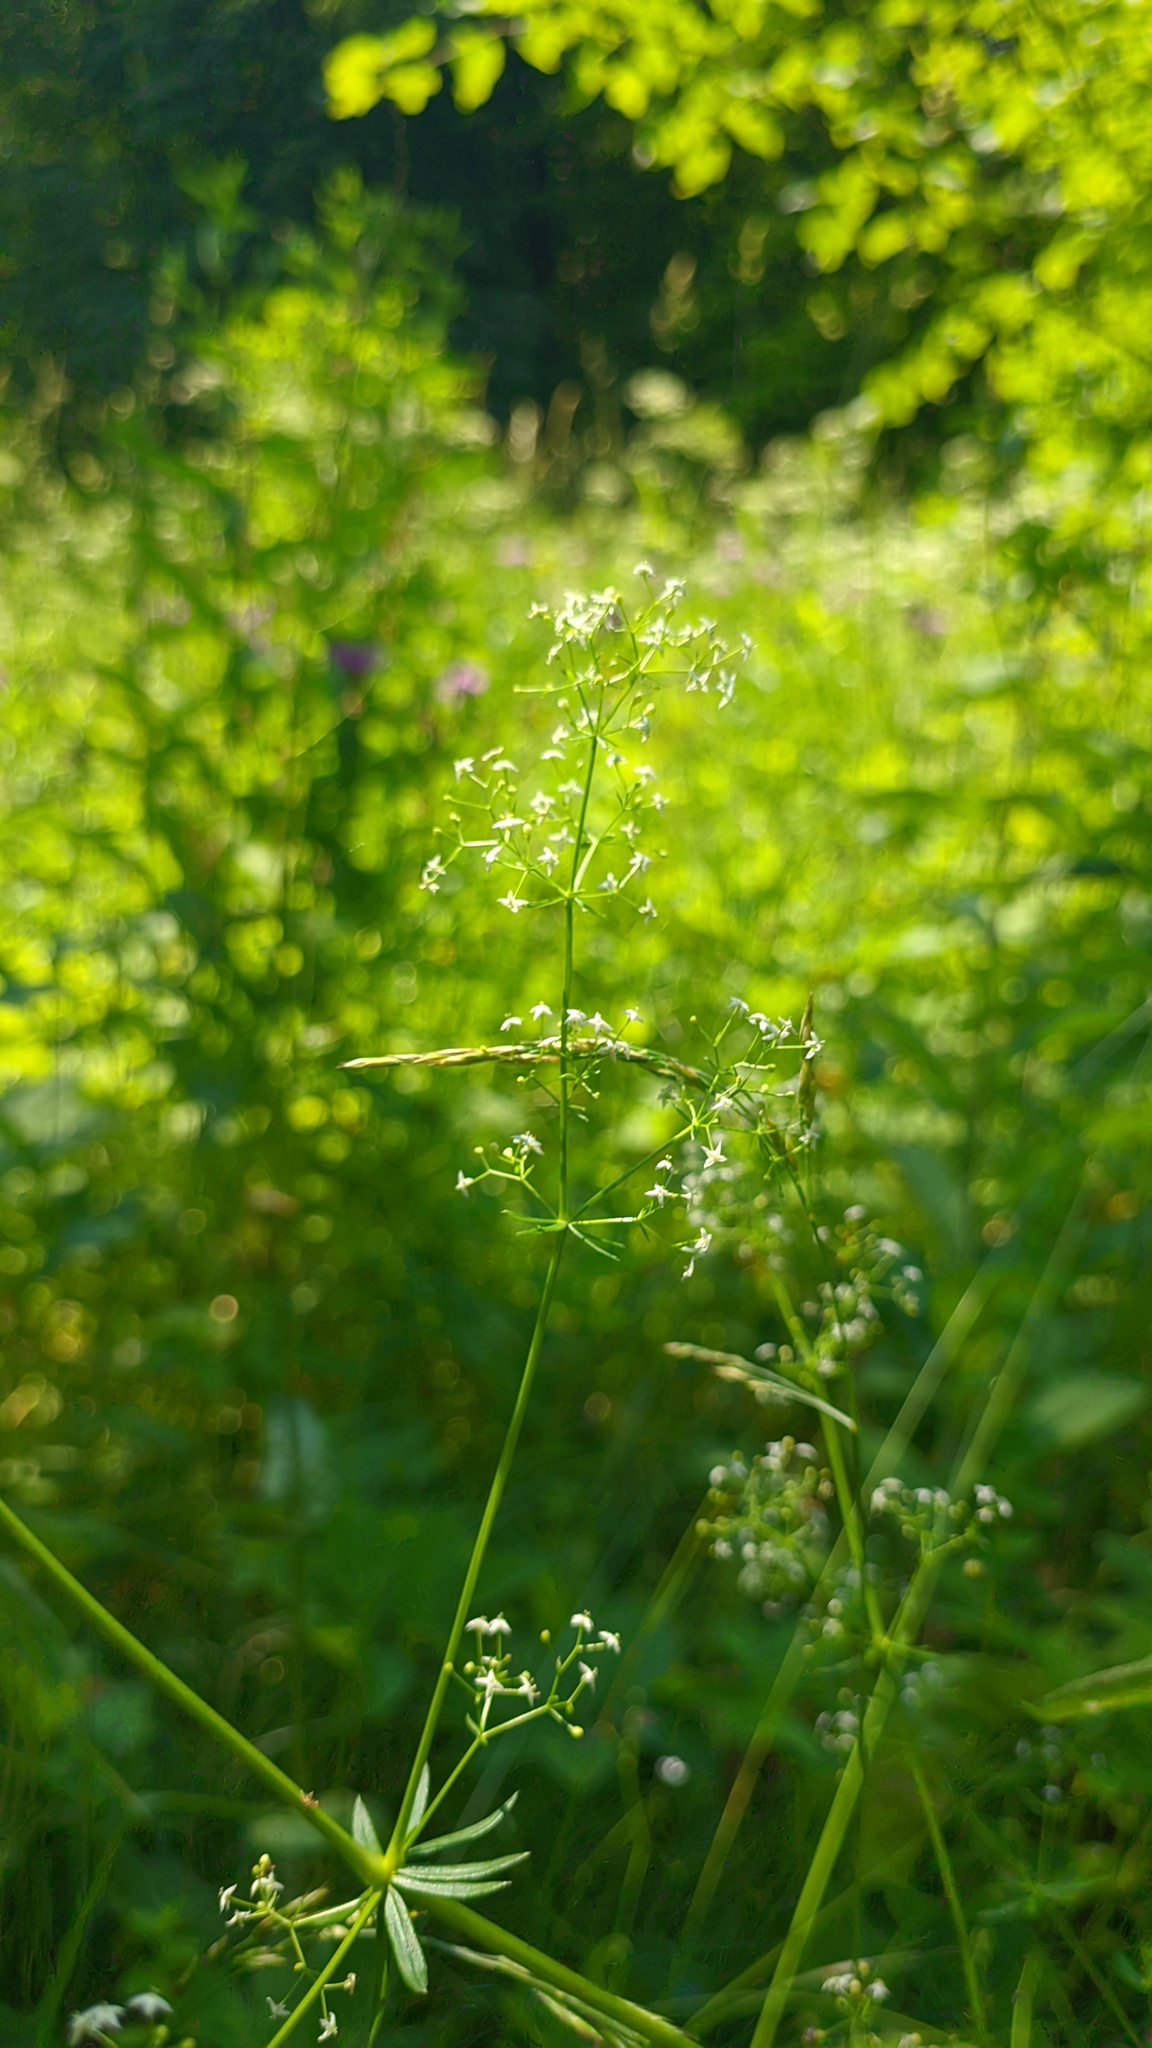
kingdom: Plantae
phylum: Tracheophyta
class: Magnoliopsida
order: Gentianales
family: Rubiaceae
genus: Galium
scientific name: Galium mollugo
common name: Hedge bedstraw
